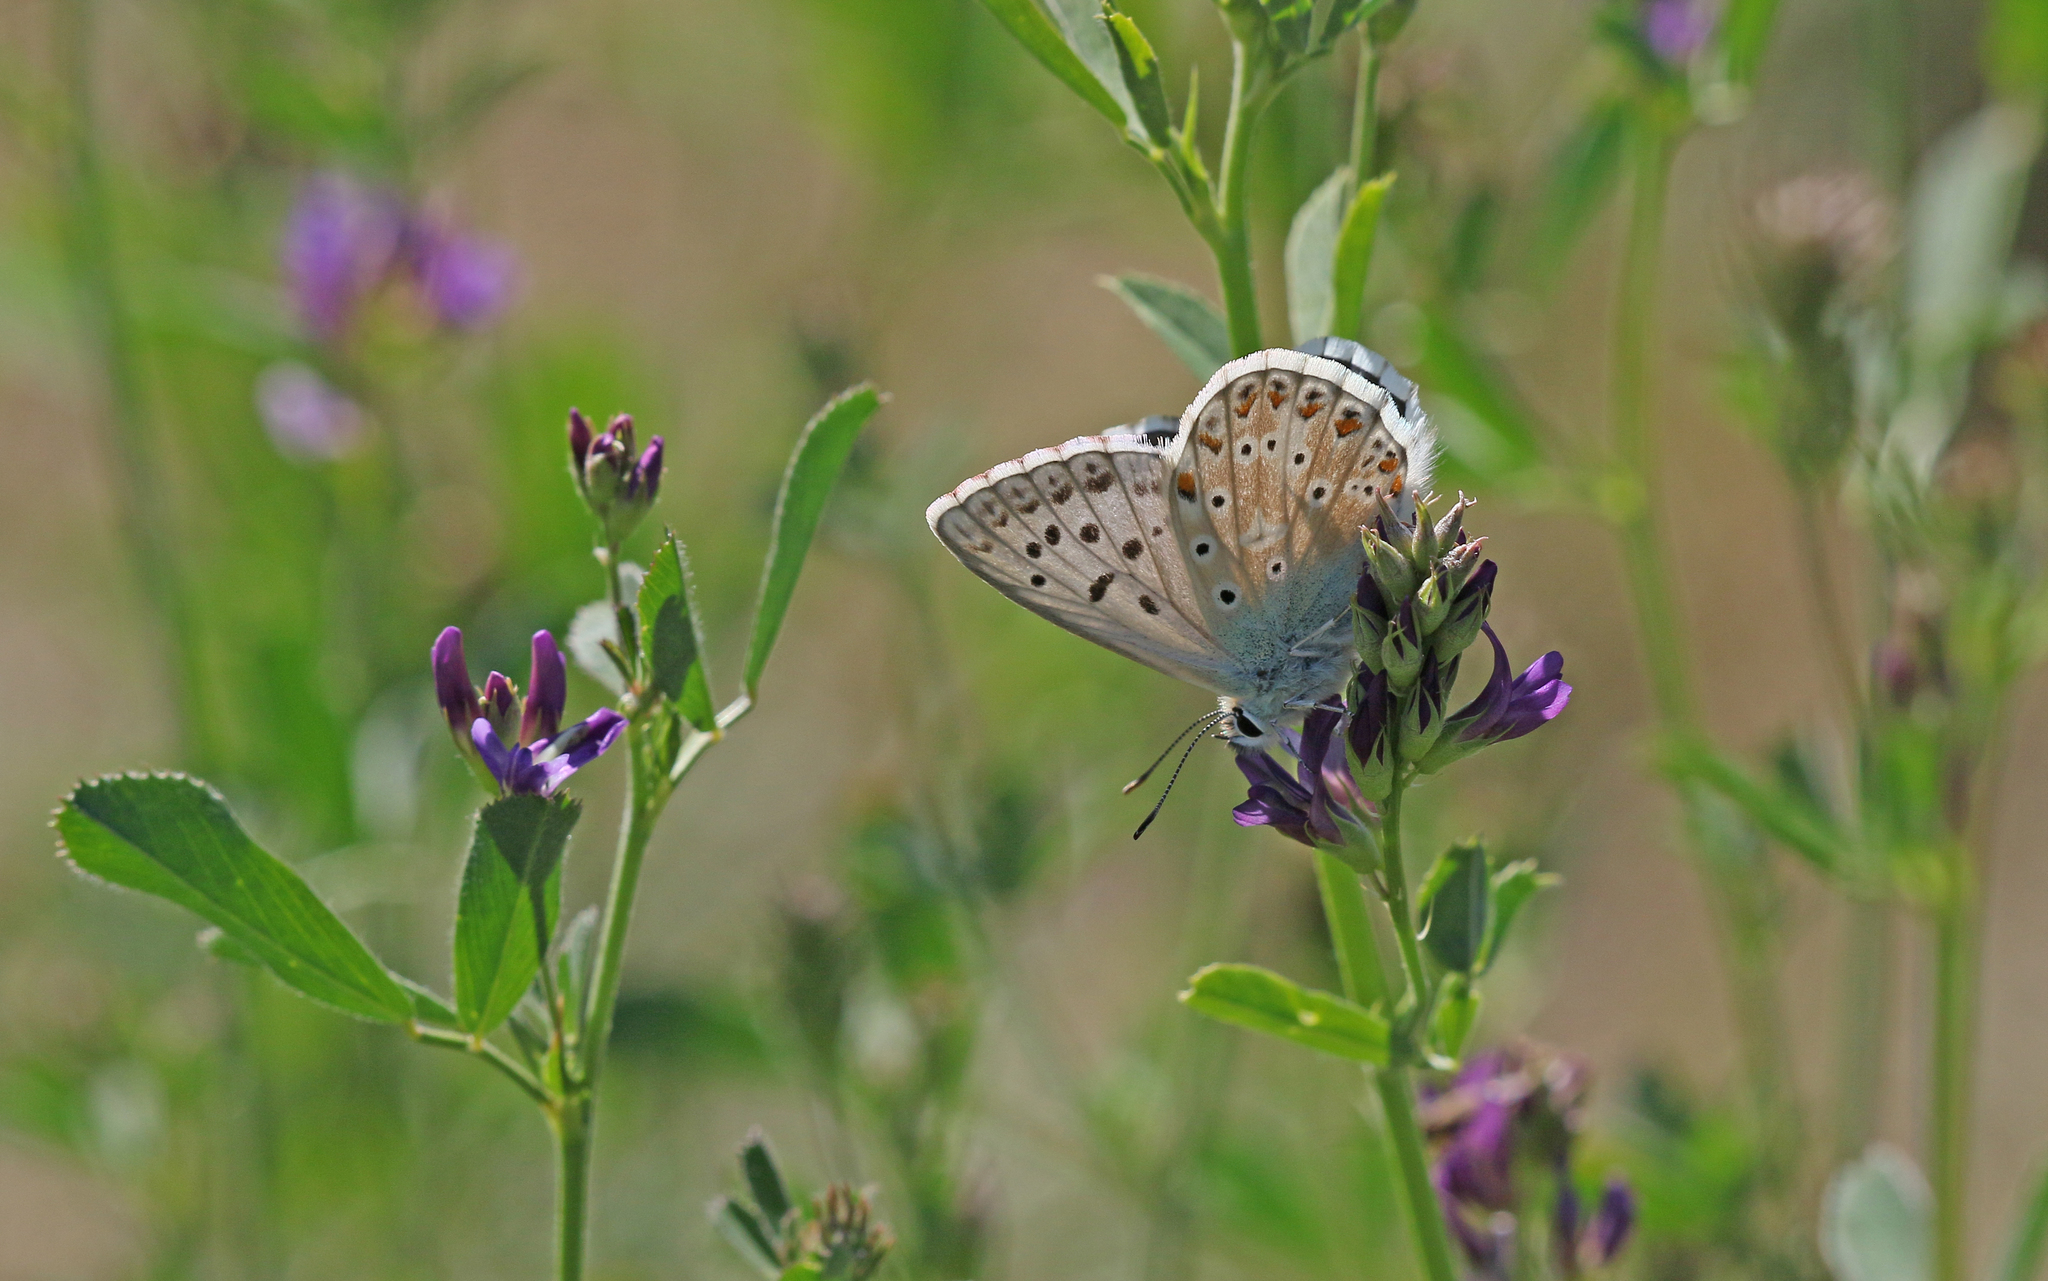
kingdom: Animalia
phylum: Arthropoda
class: Insecta
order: Lepidoptera
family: Lycaenidae
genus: Lysandra
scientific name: Lysandra coridon
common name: Chalkhill blue
